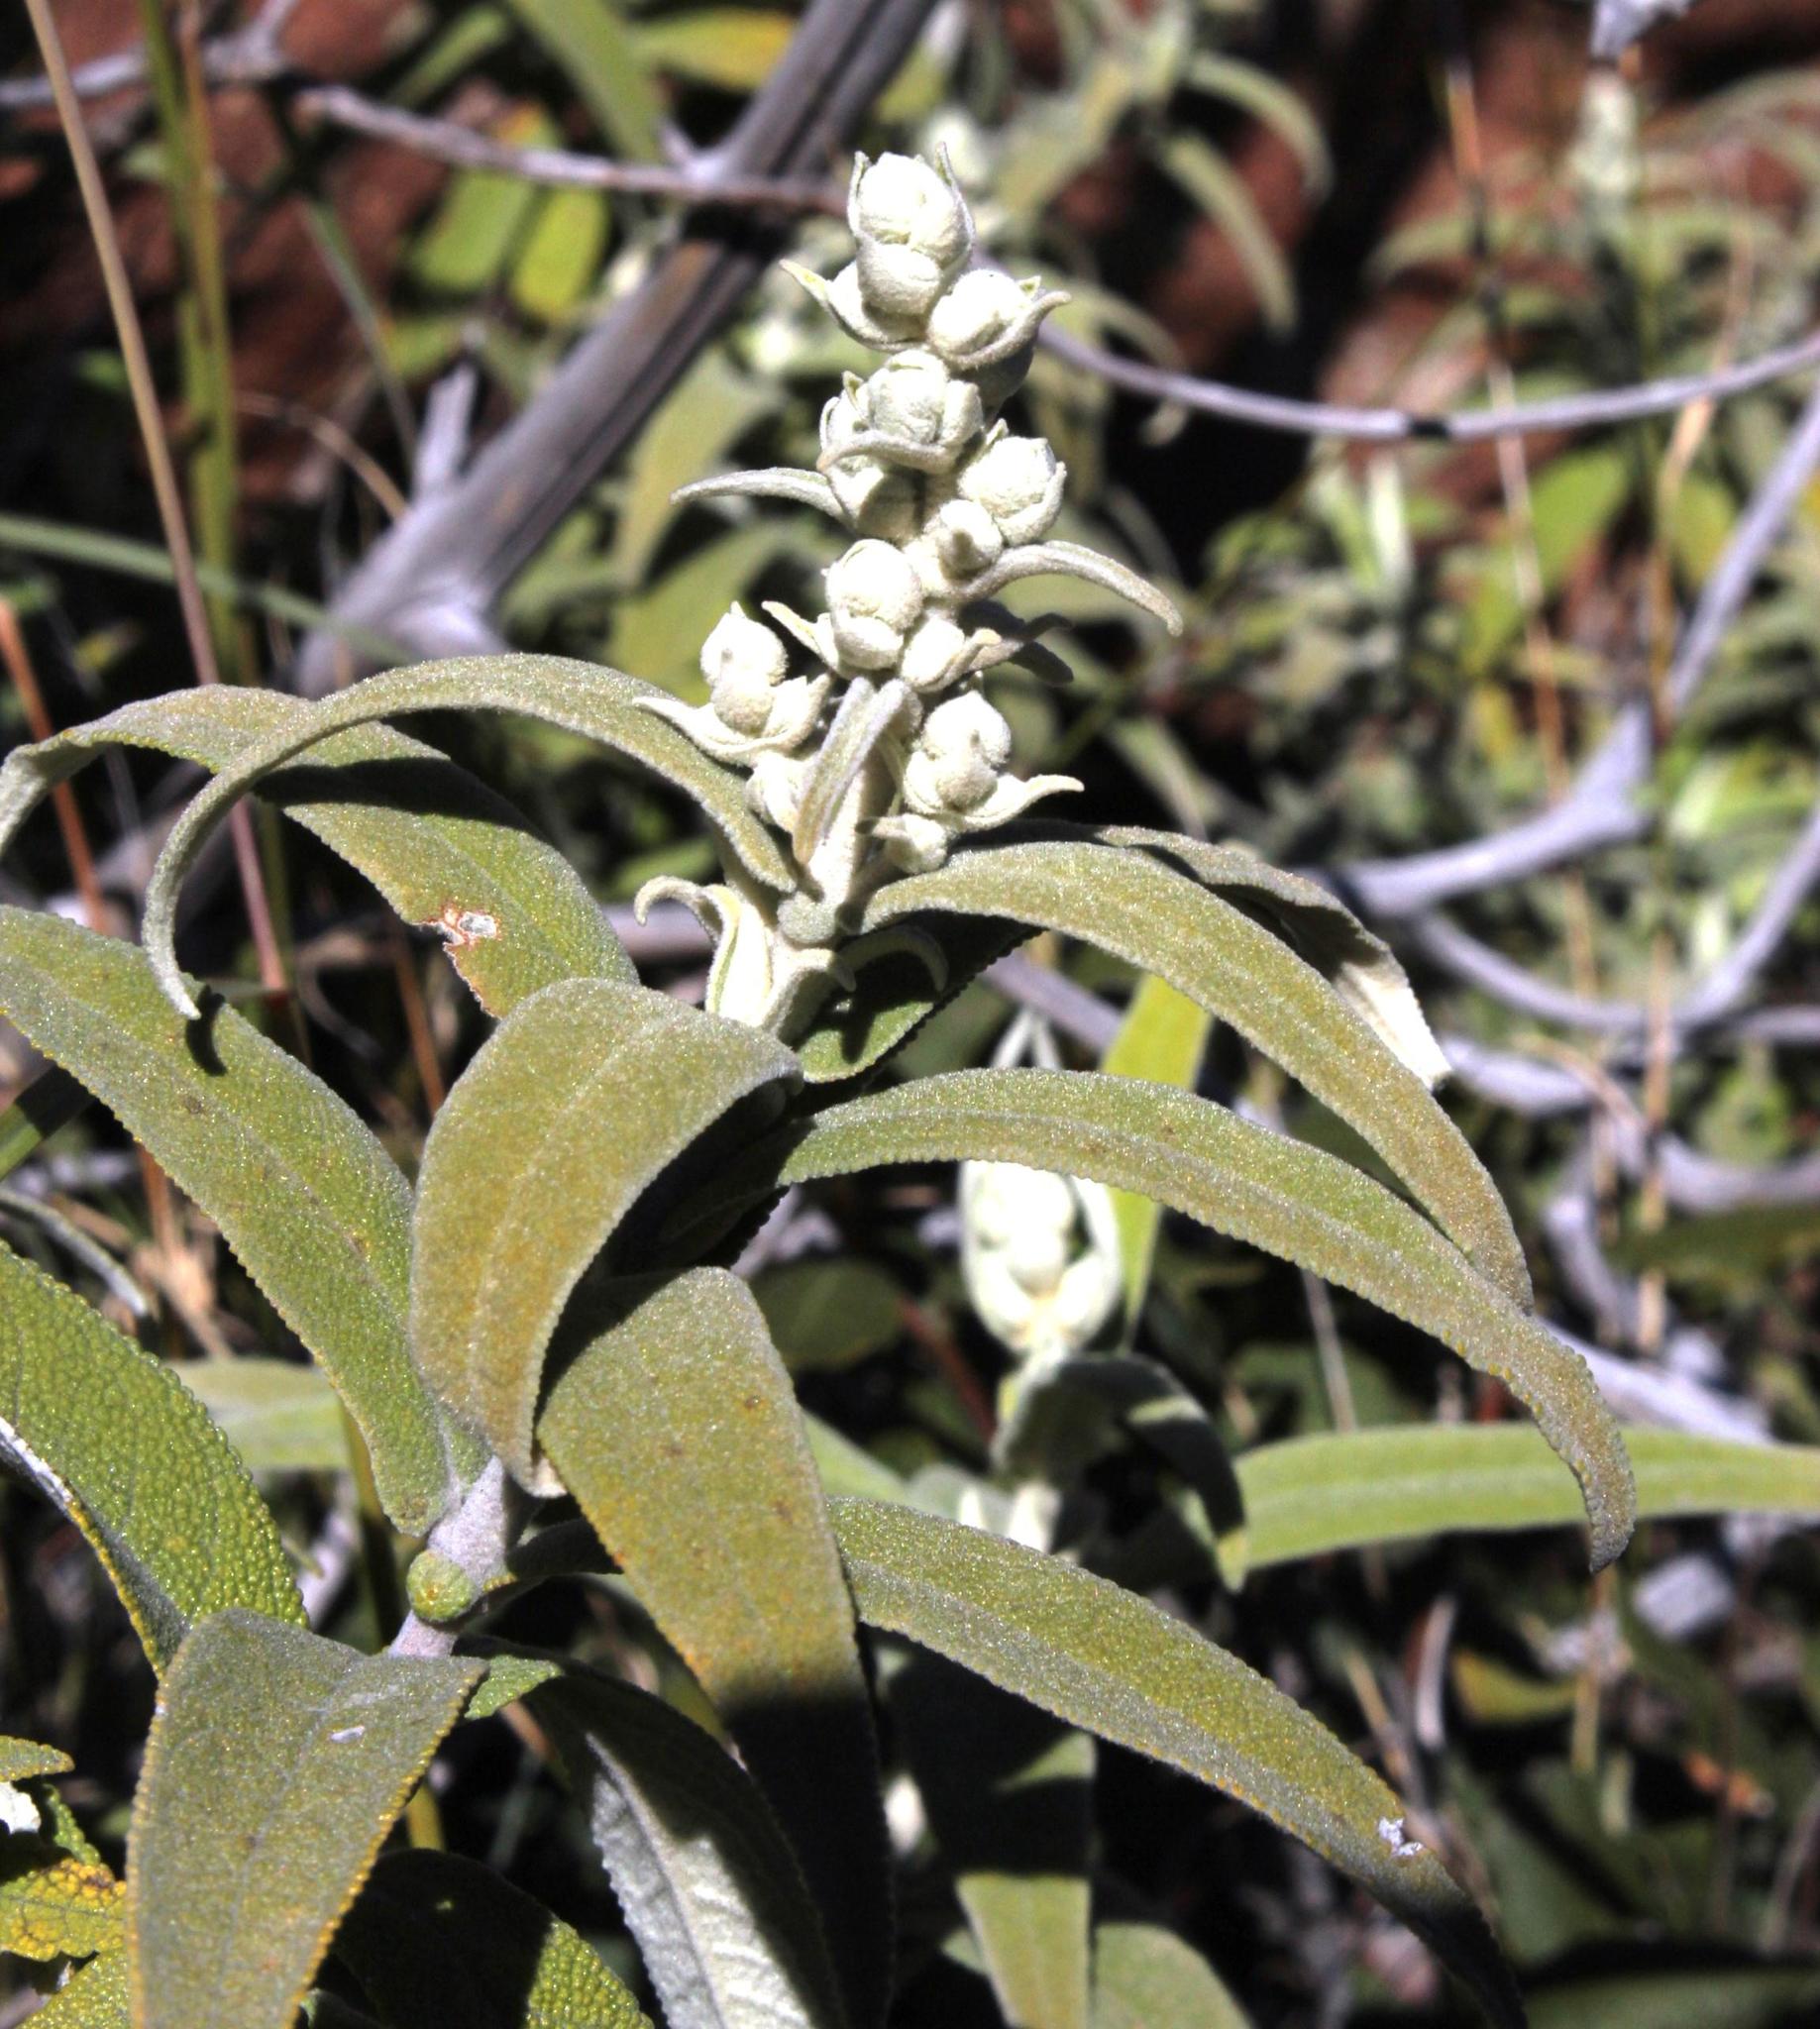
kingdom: Plantae
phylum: Tracheophyta
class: Magnoliopsida
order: Lamiales
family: Scrophulariaceae
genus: Buddleja
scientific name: Buddleja salviifolia
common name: Sagewood
